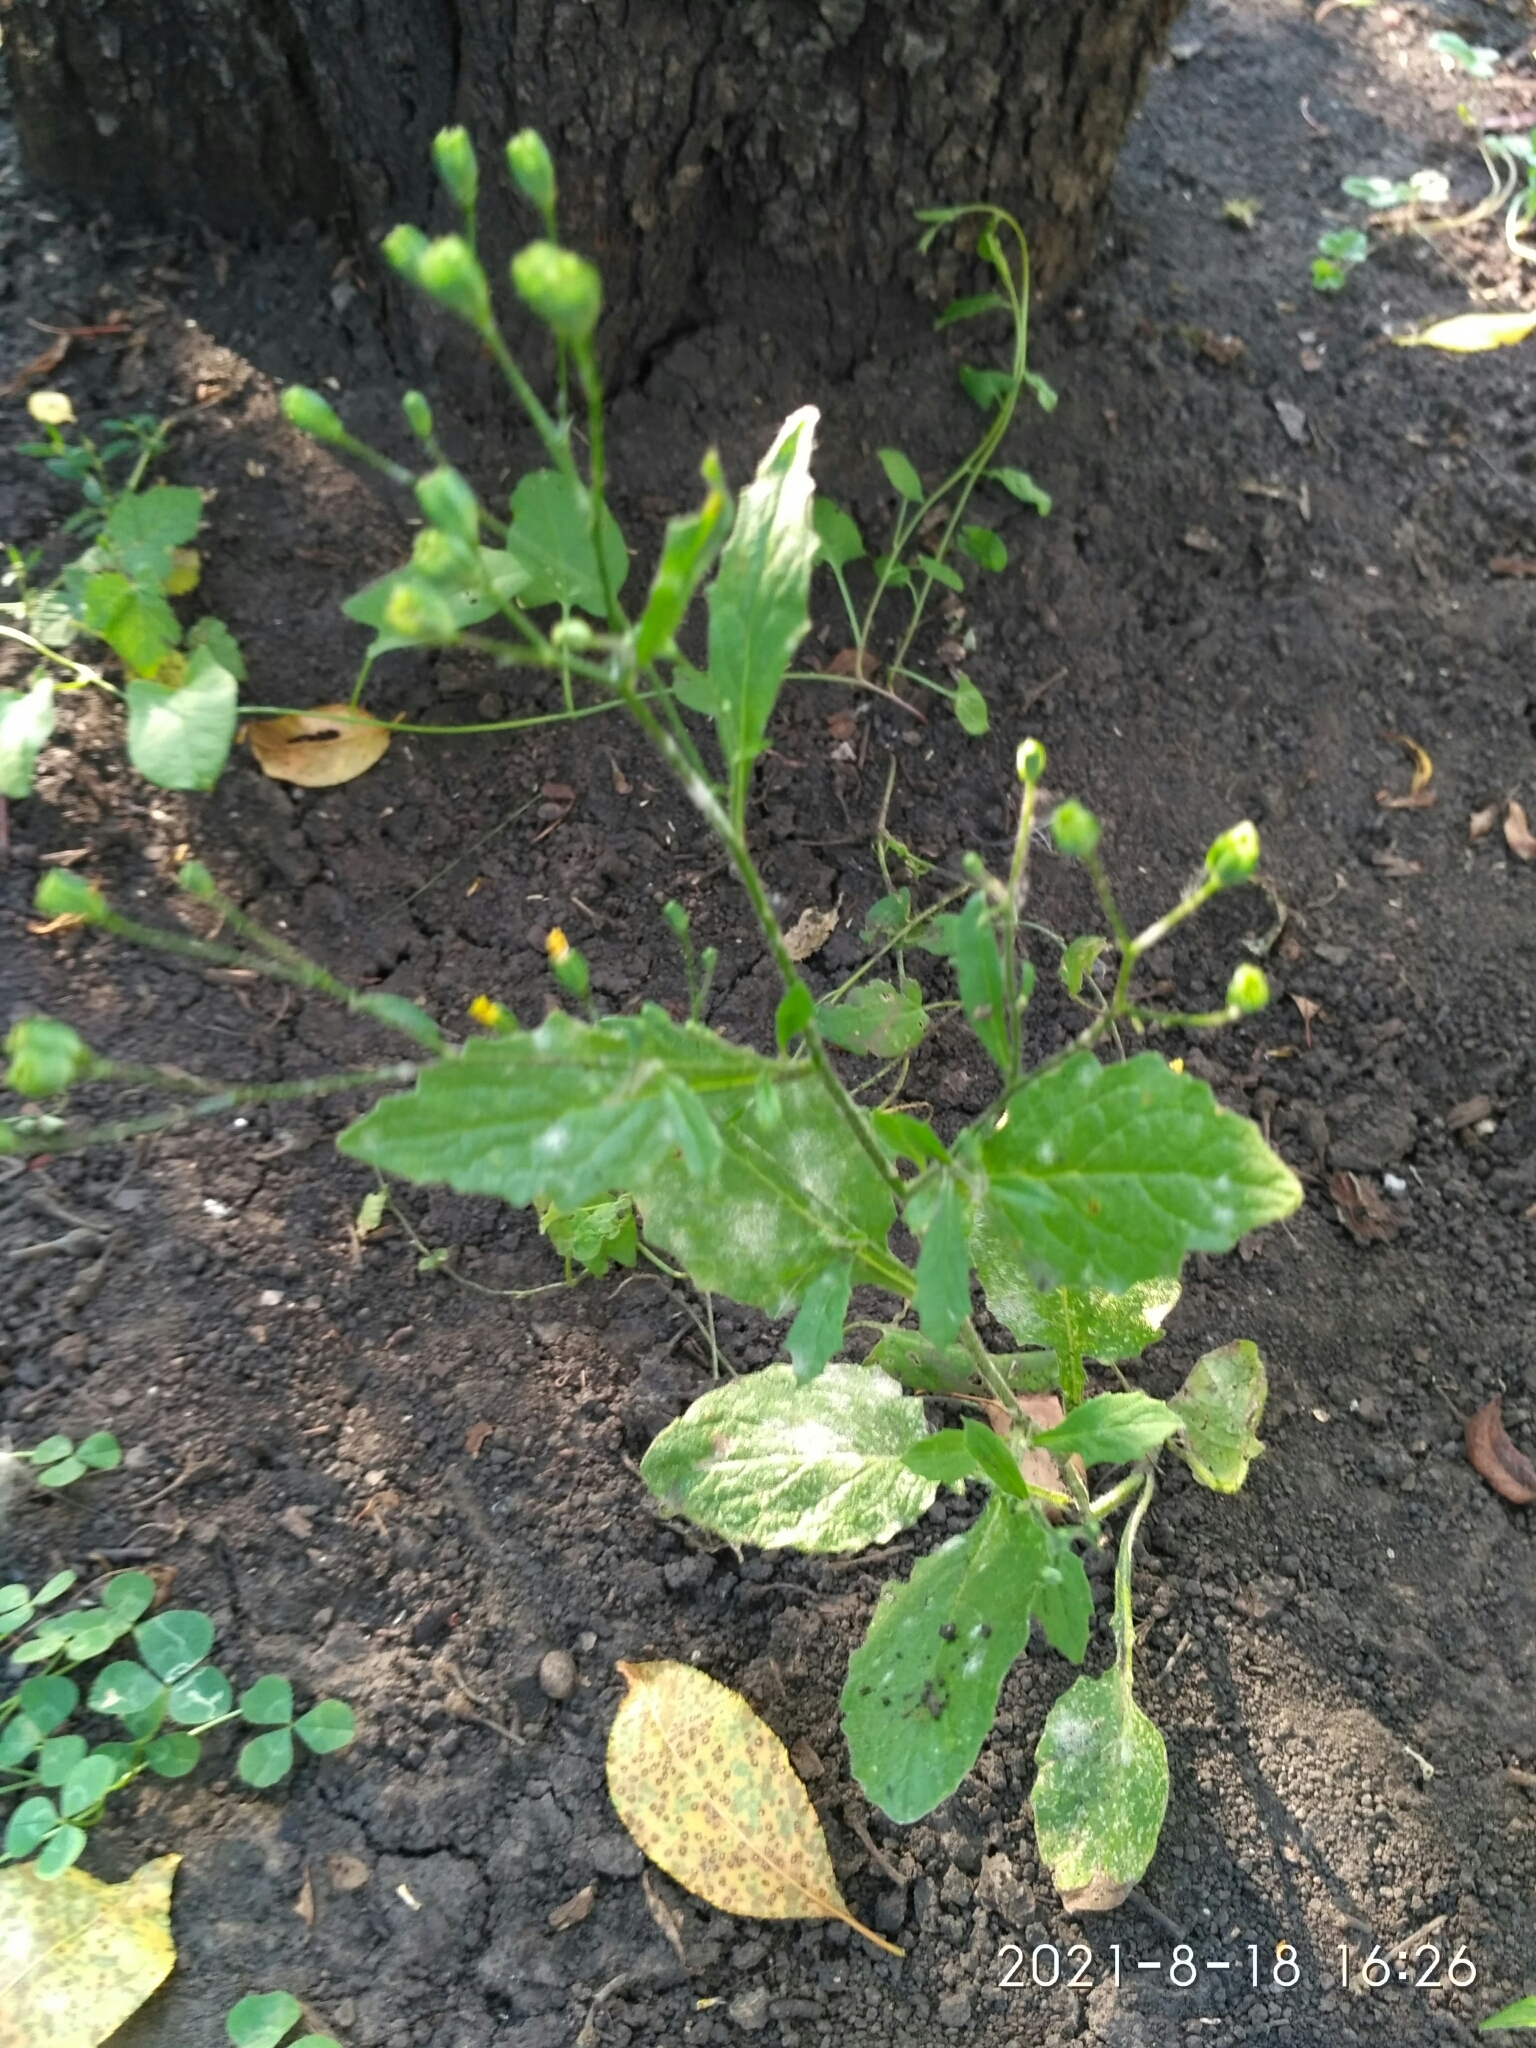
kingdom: Plantae
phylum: Tracheophyta
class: Magnoliopsida
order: Asterales
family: Asteraceae
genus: Lapsana
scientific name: Lapsana communis
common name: Nipplewort
